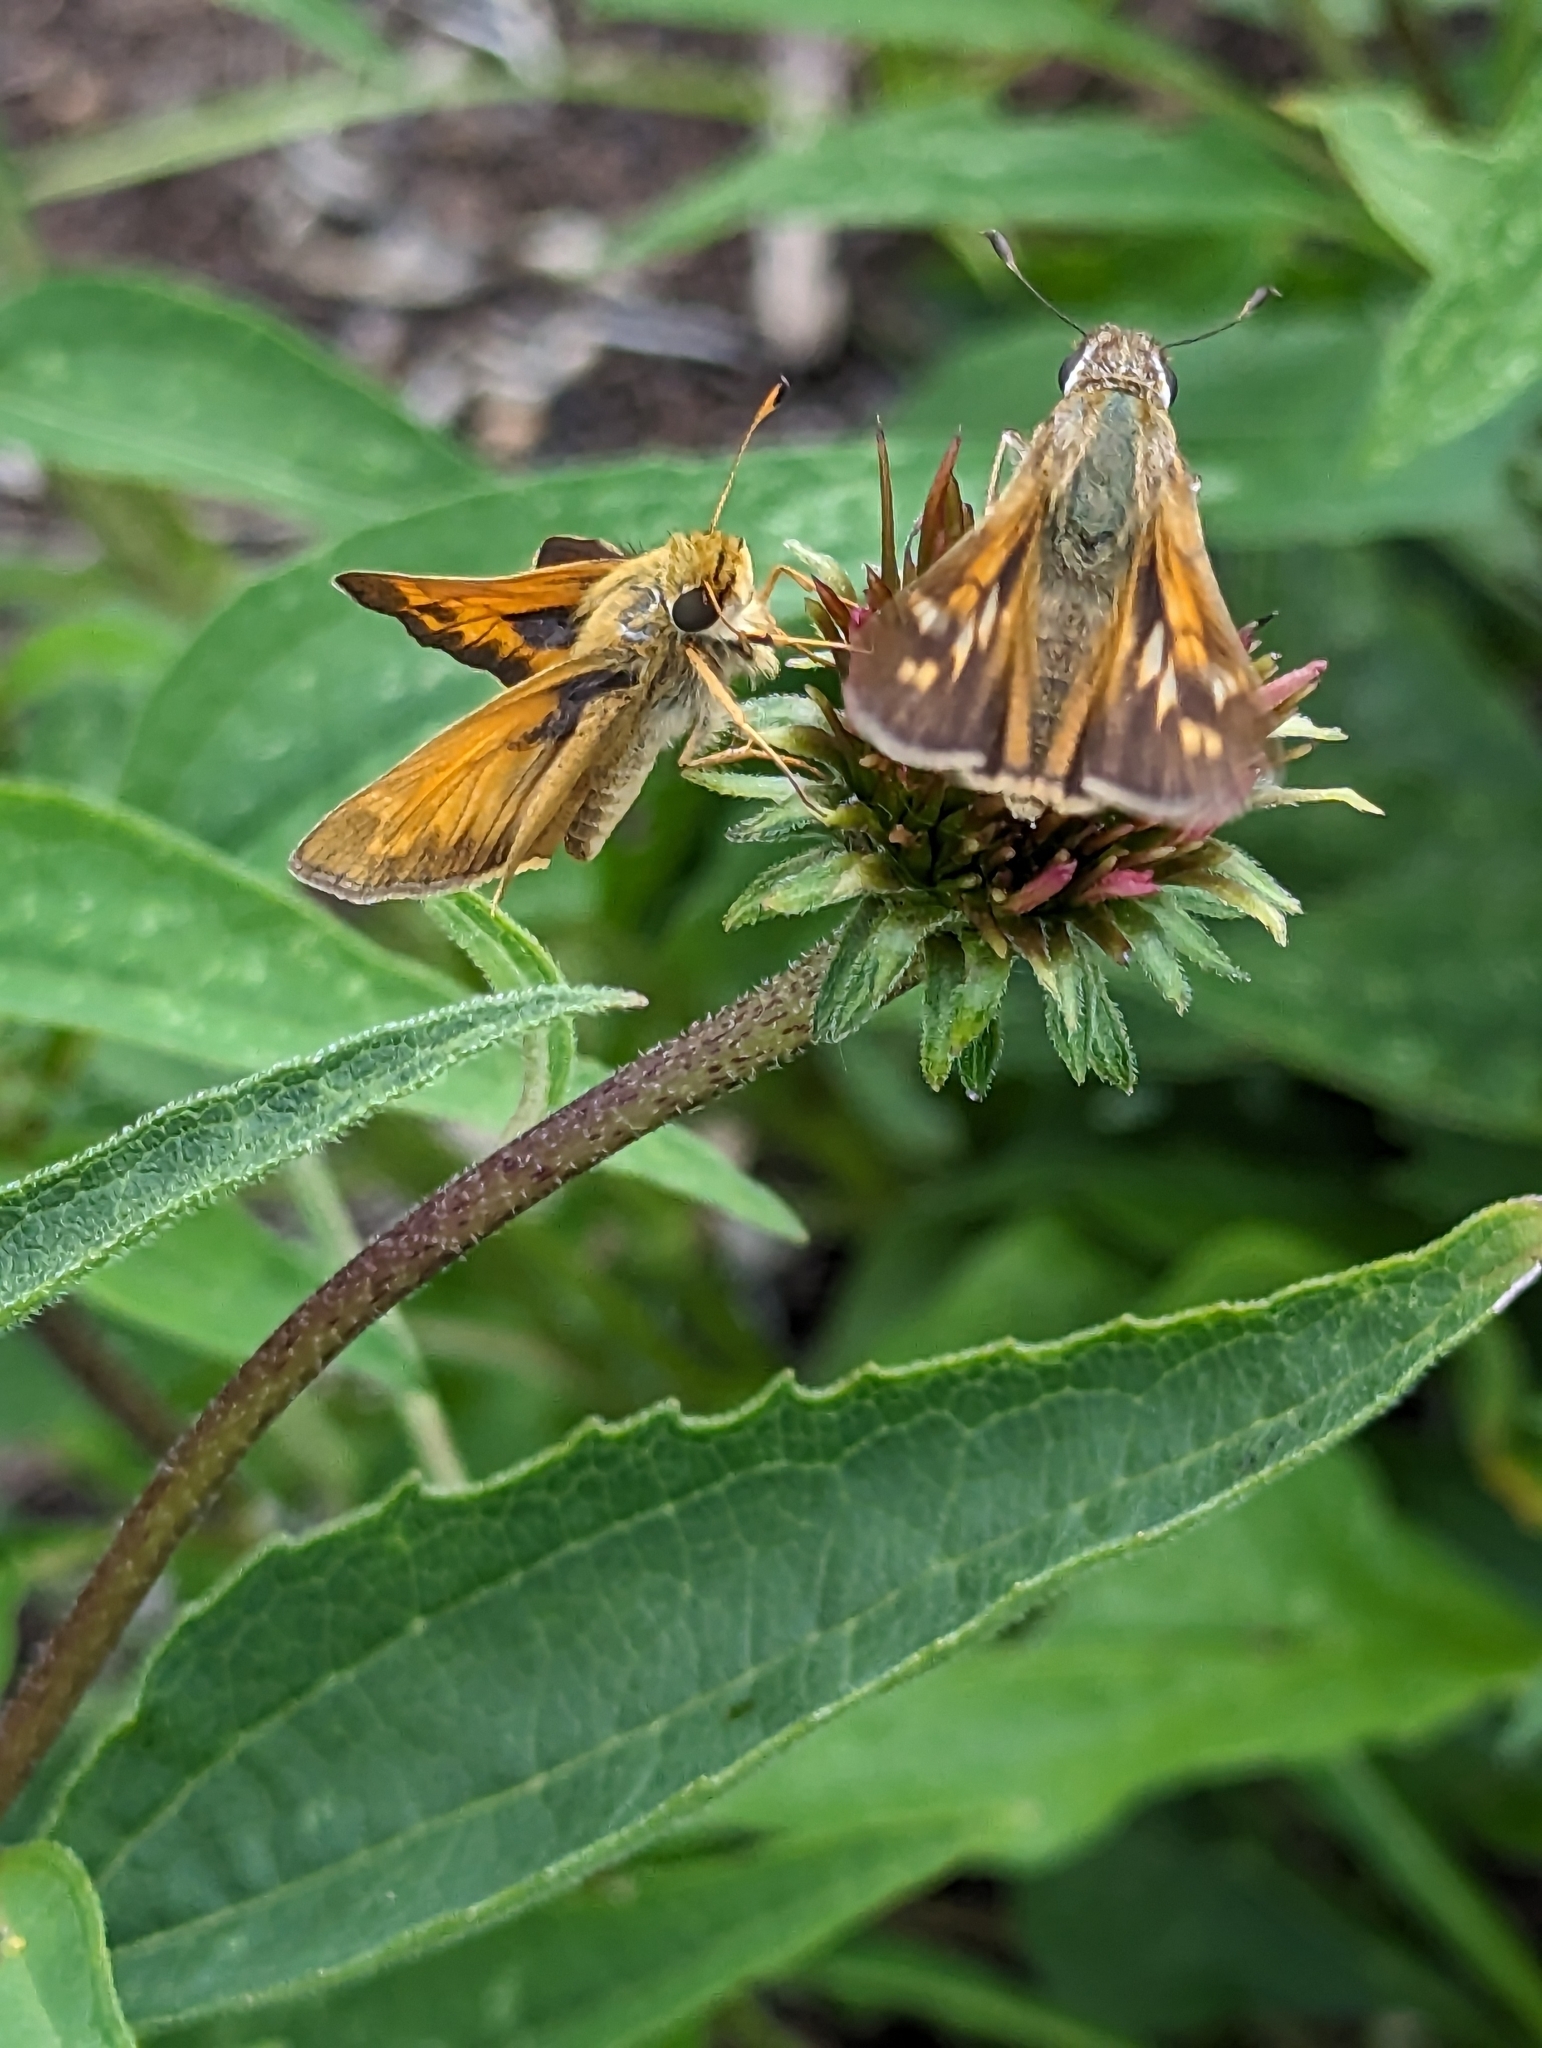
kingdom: Animalia
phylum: Arthropoda
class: Insecta
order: Lepidoptera
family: Hesperiidae
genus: Atalopedes
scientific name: Atalopedes
